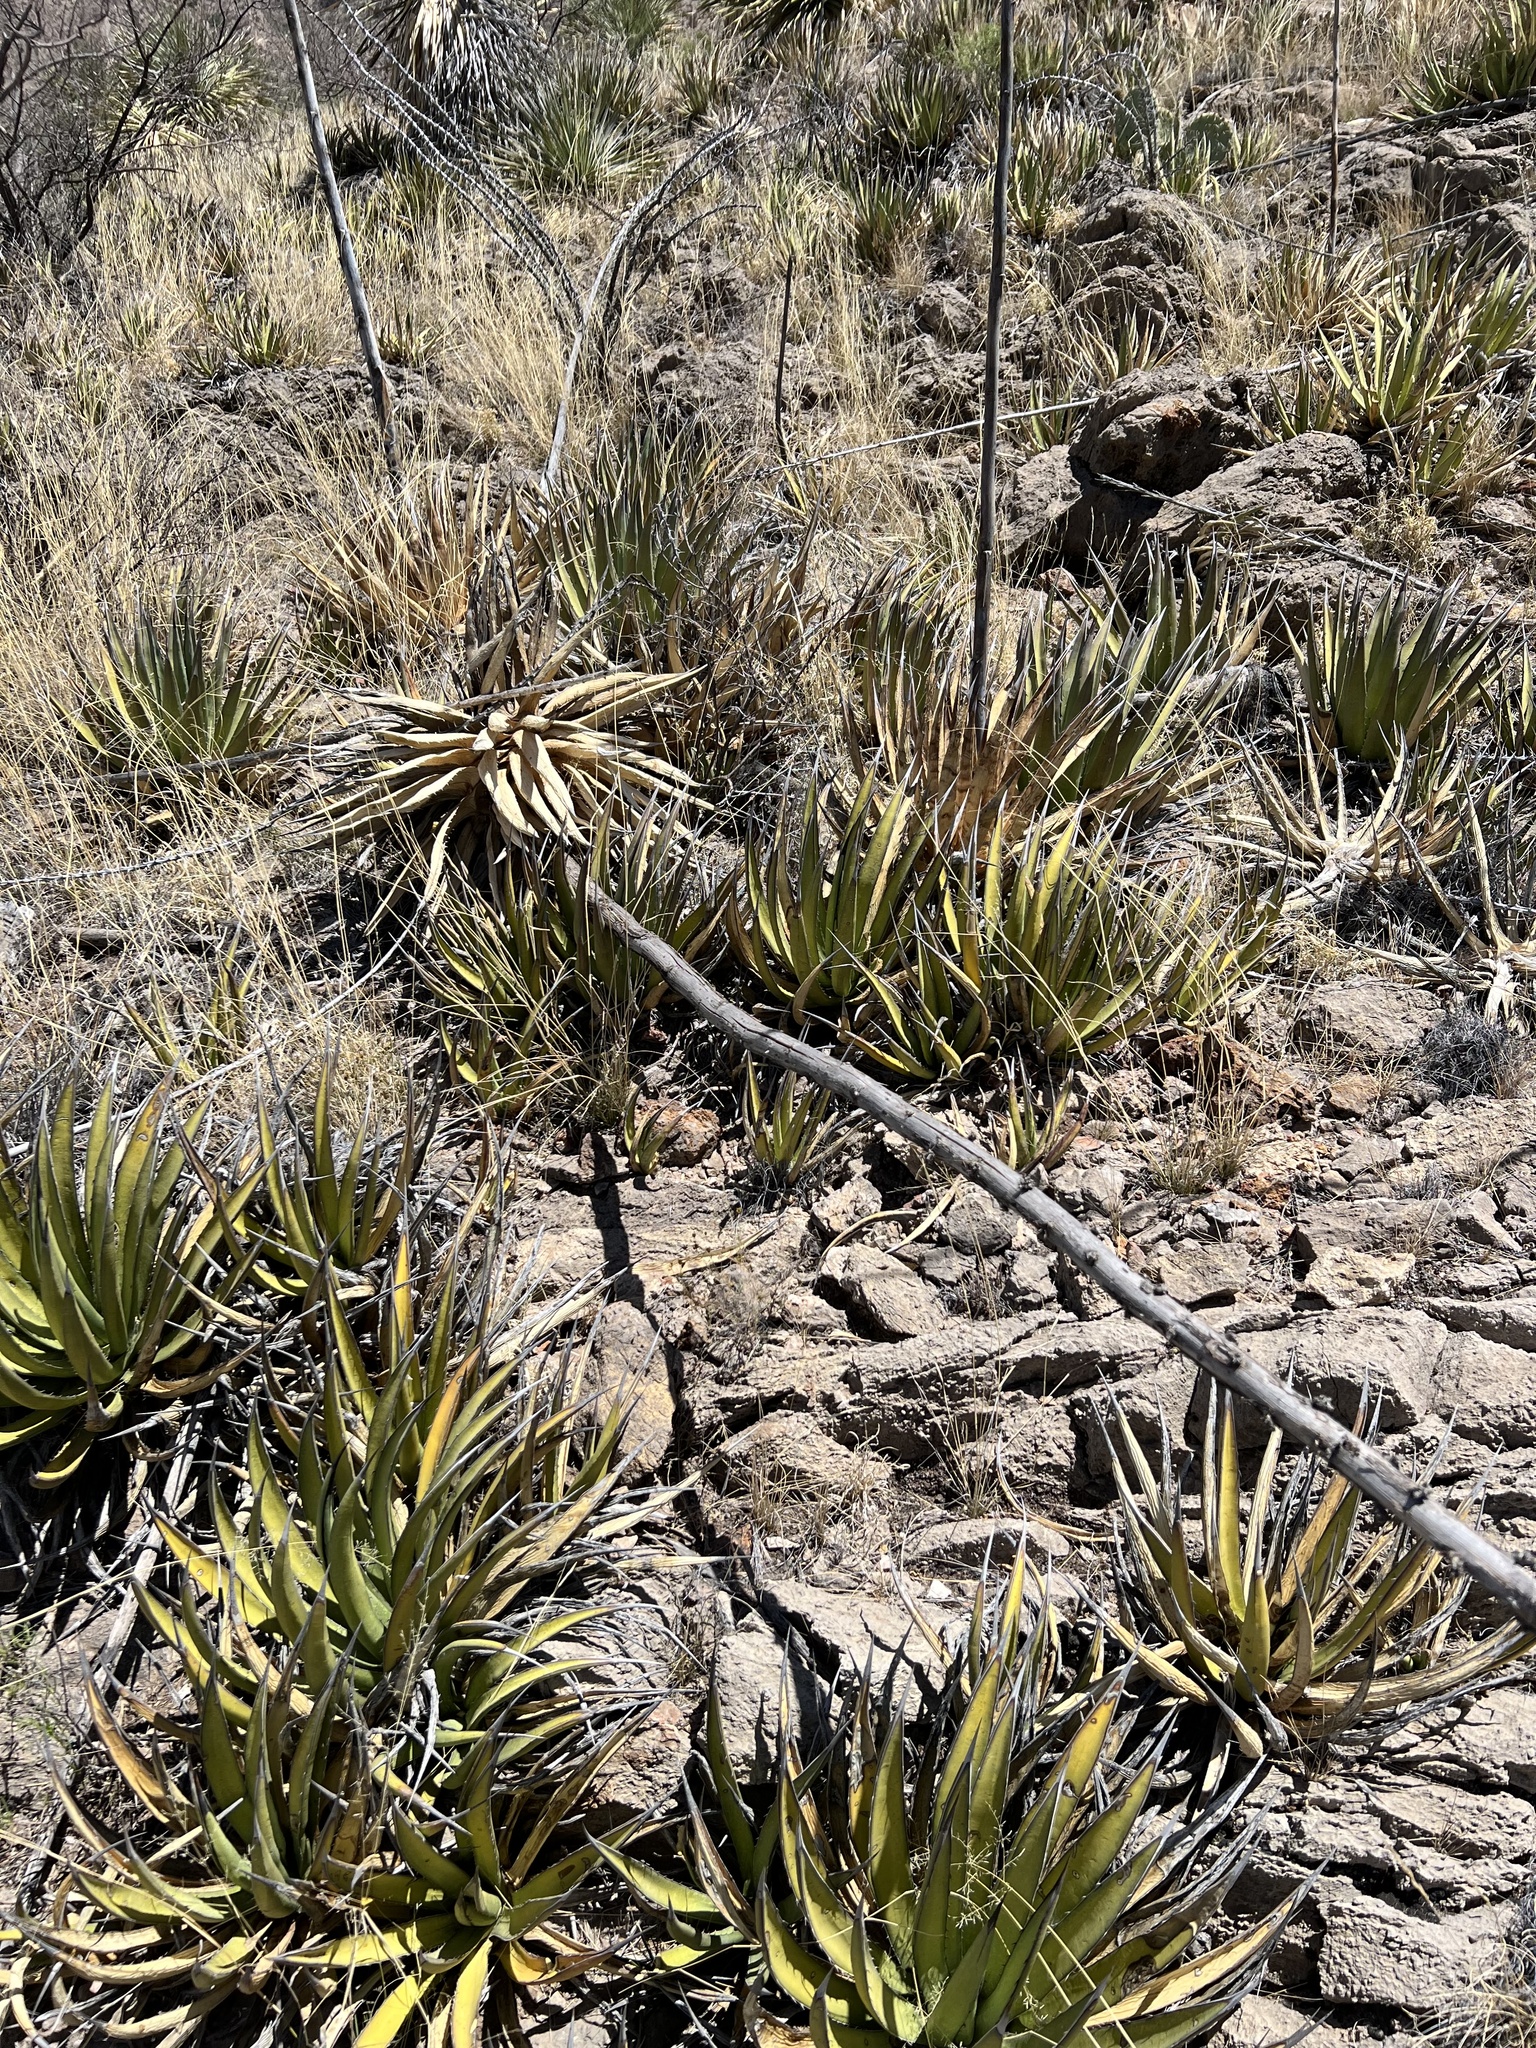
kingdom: Plantae
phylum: Tracheophyta
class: Liliopsida
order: Asparagales
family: Asparagaceae
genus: Agave
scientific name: Agave lechuguilla
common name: Lecheguilla agave
